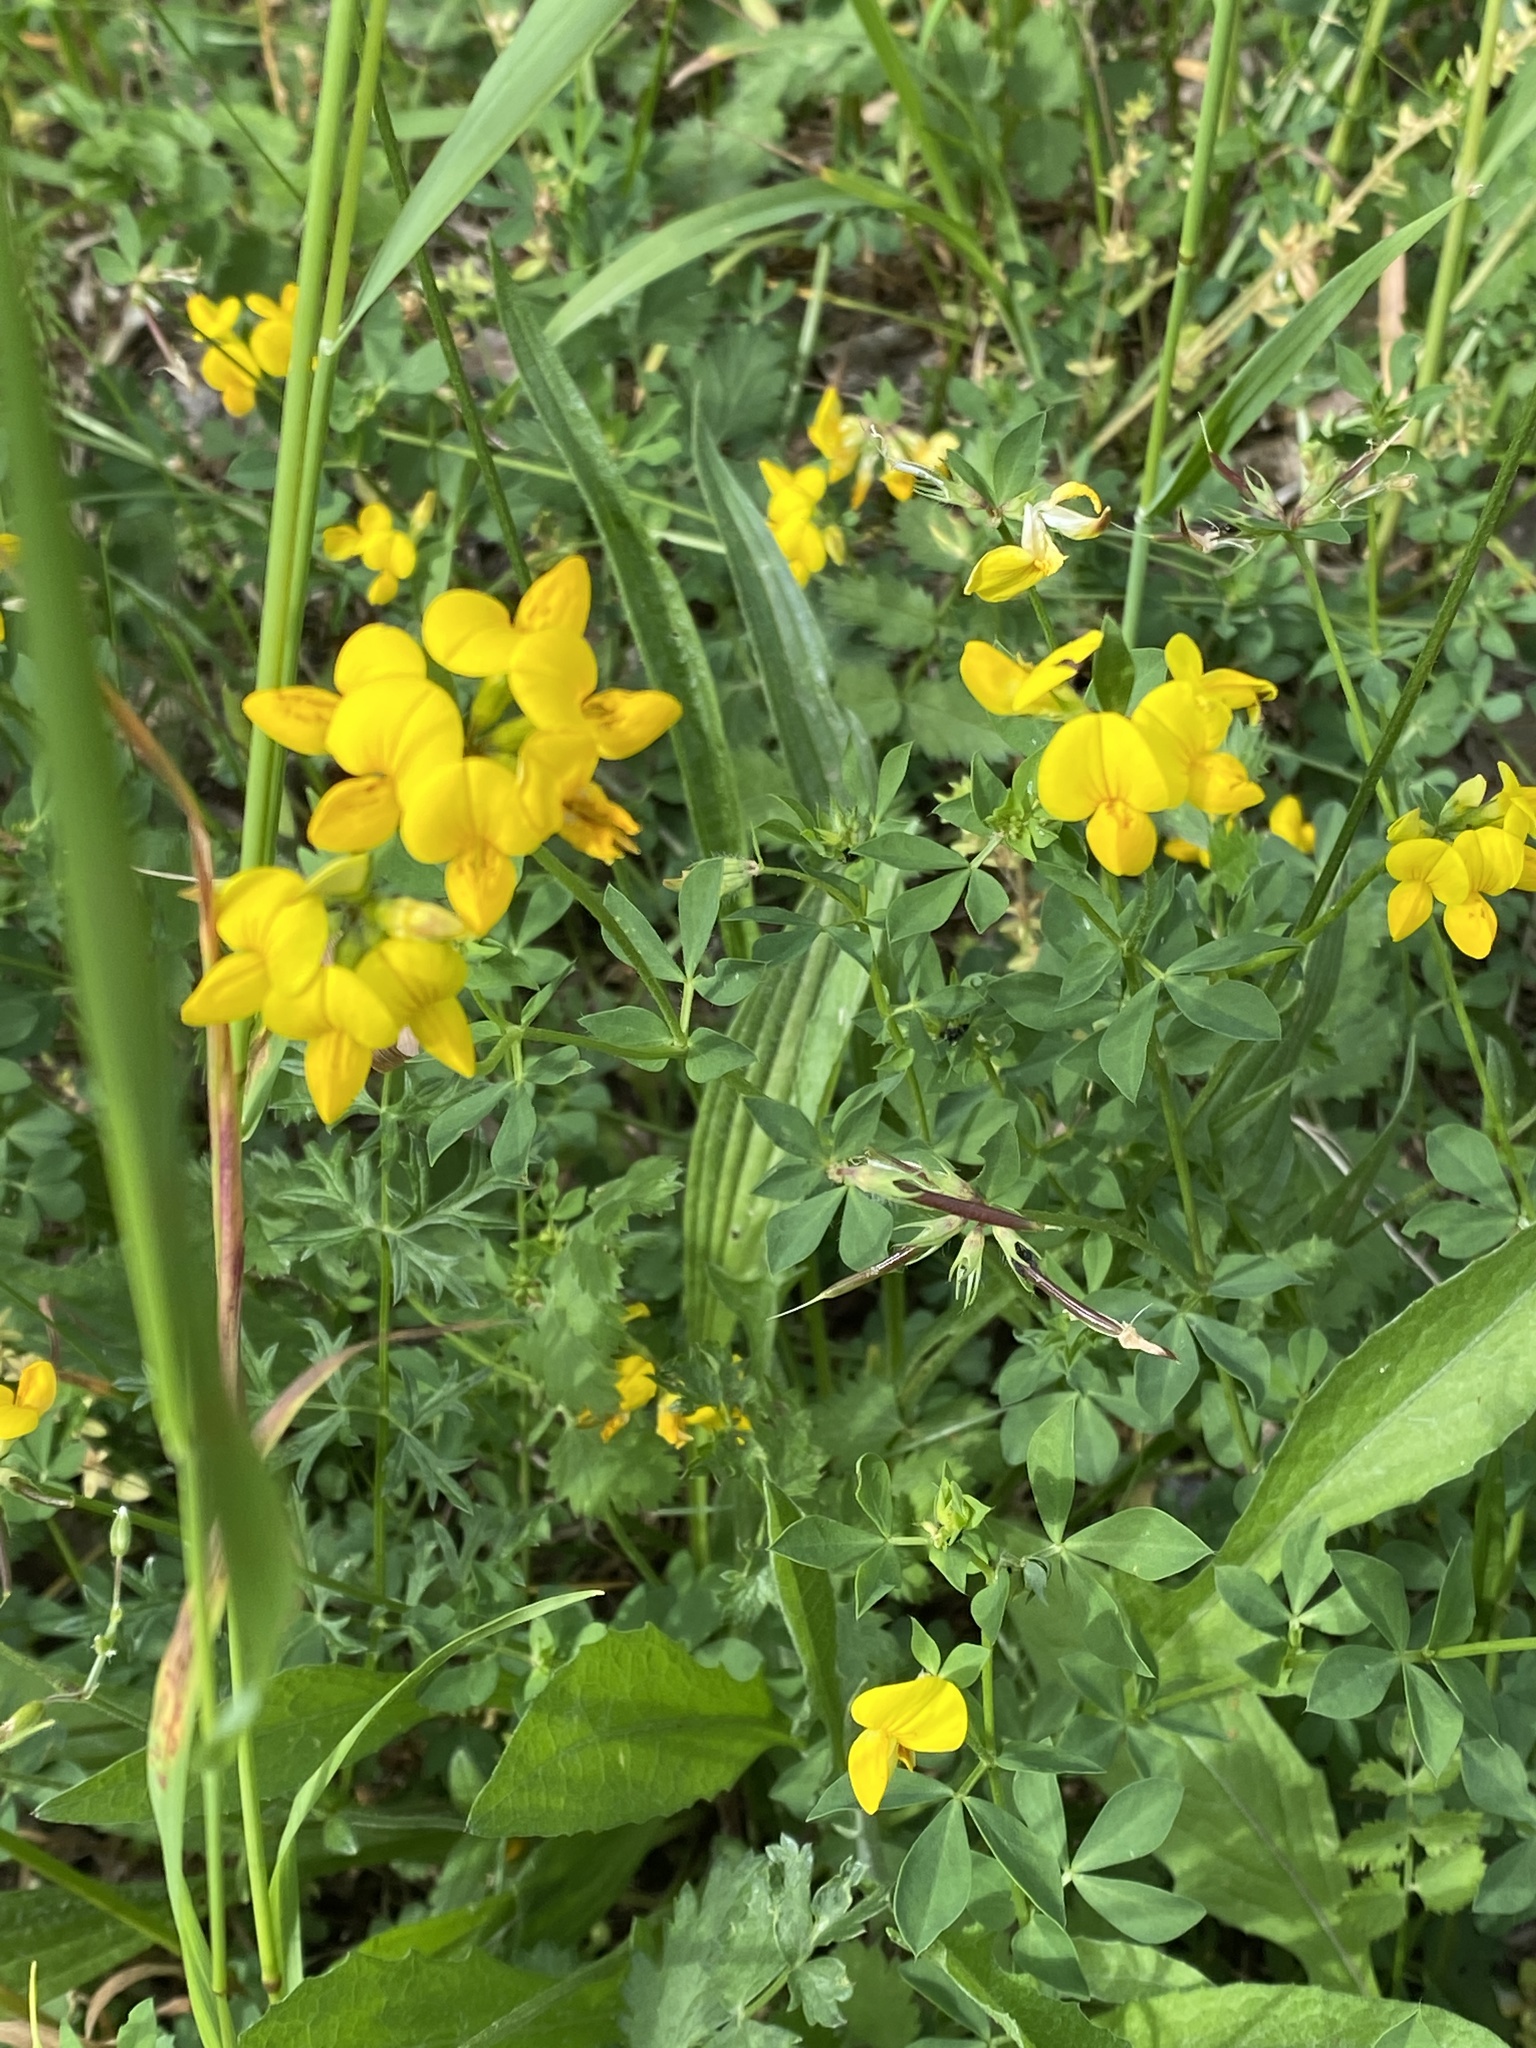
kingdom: Plantae
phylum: Tracheophyta
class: Magnoliopsida
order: Fabales
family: Fabaceae
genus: Lotus
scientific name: Lotus pedunculatus
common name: Greater birdsfoot-trefoil
